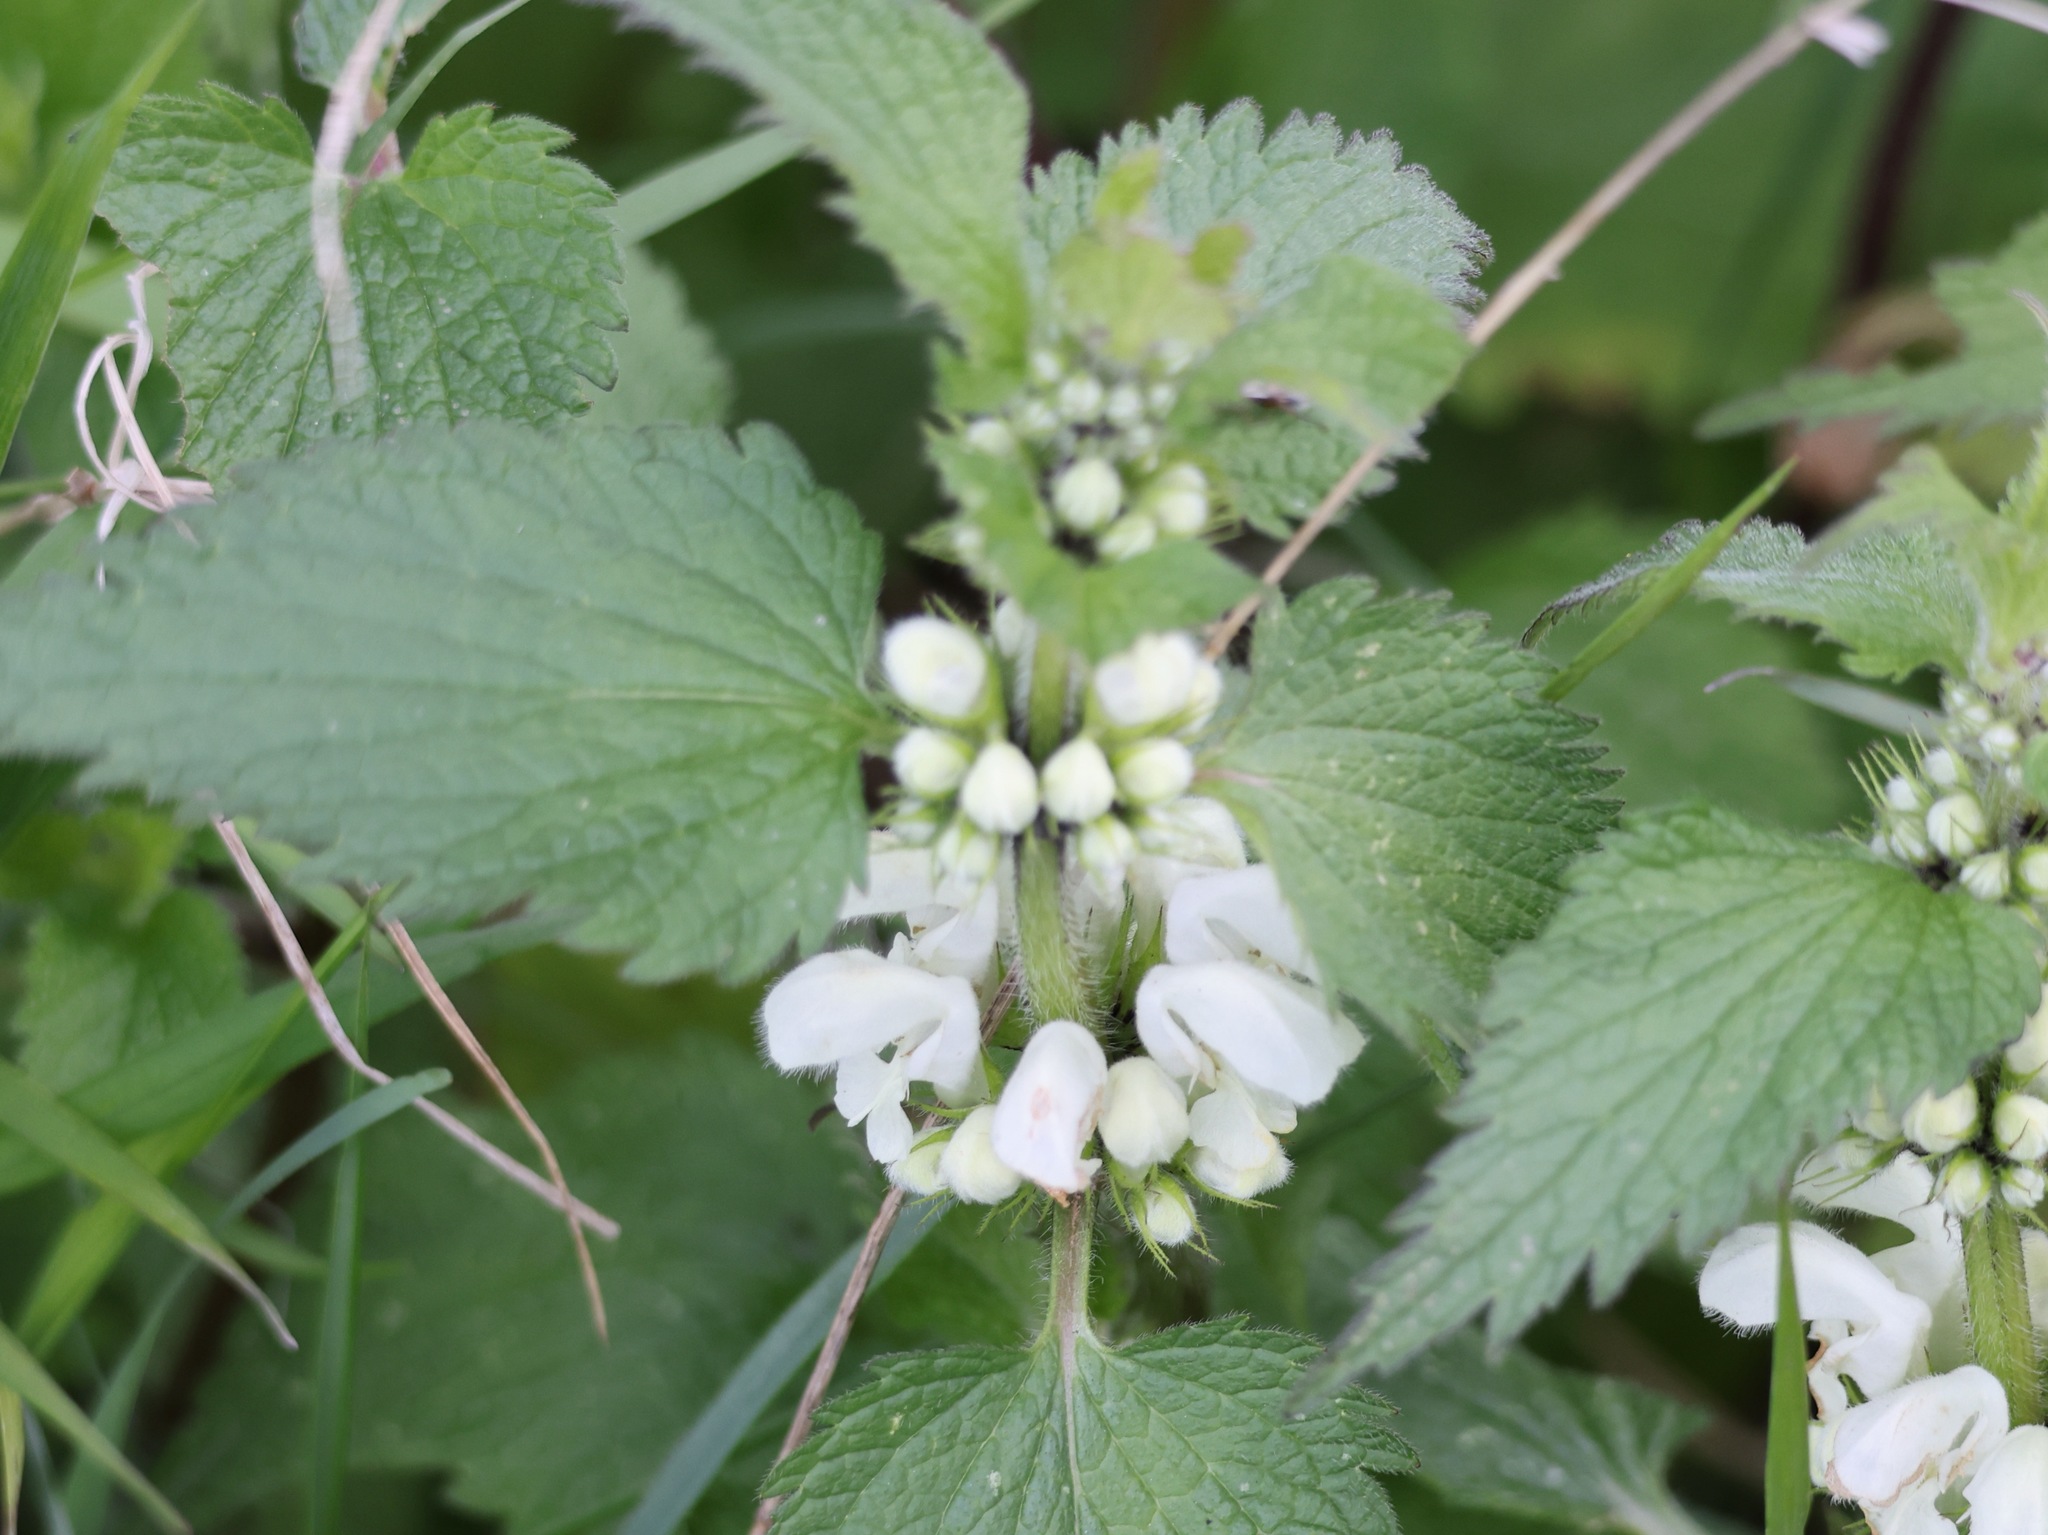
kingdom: Plantae
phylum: Tracheophyta
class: Magnoliopsida
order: Lamiales
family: Lamiaceae
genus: Lamium
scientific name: Lamium album
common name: White dead-nettle
